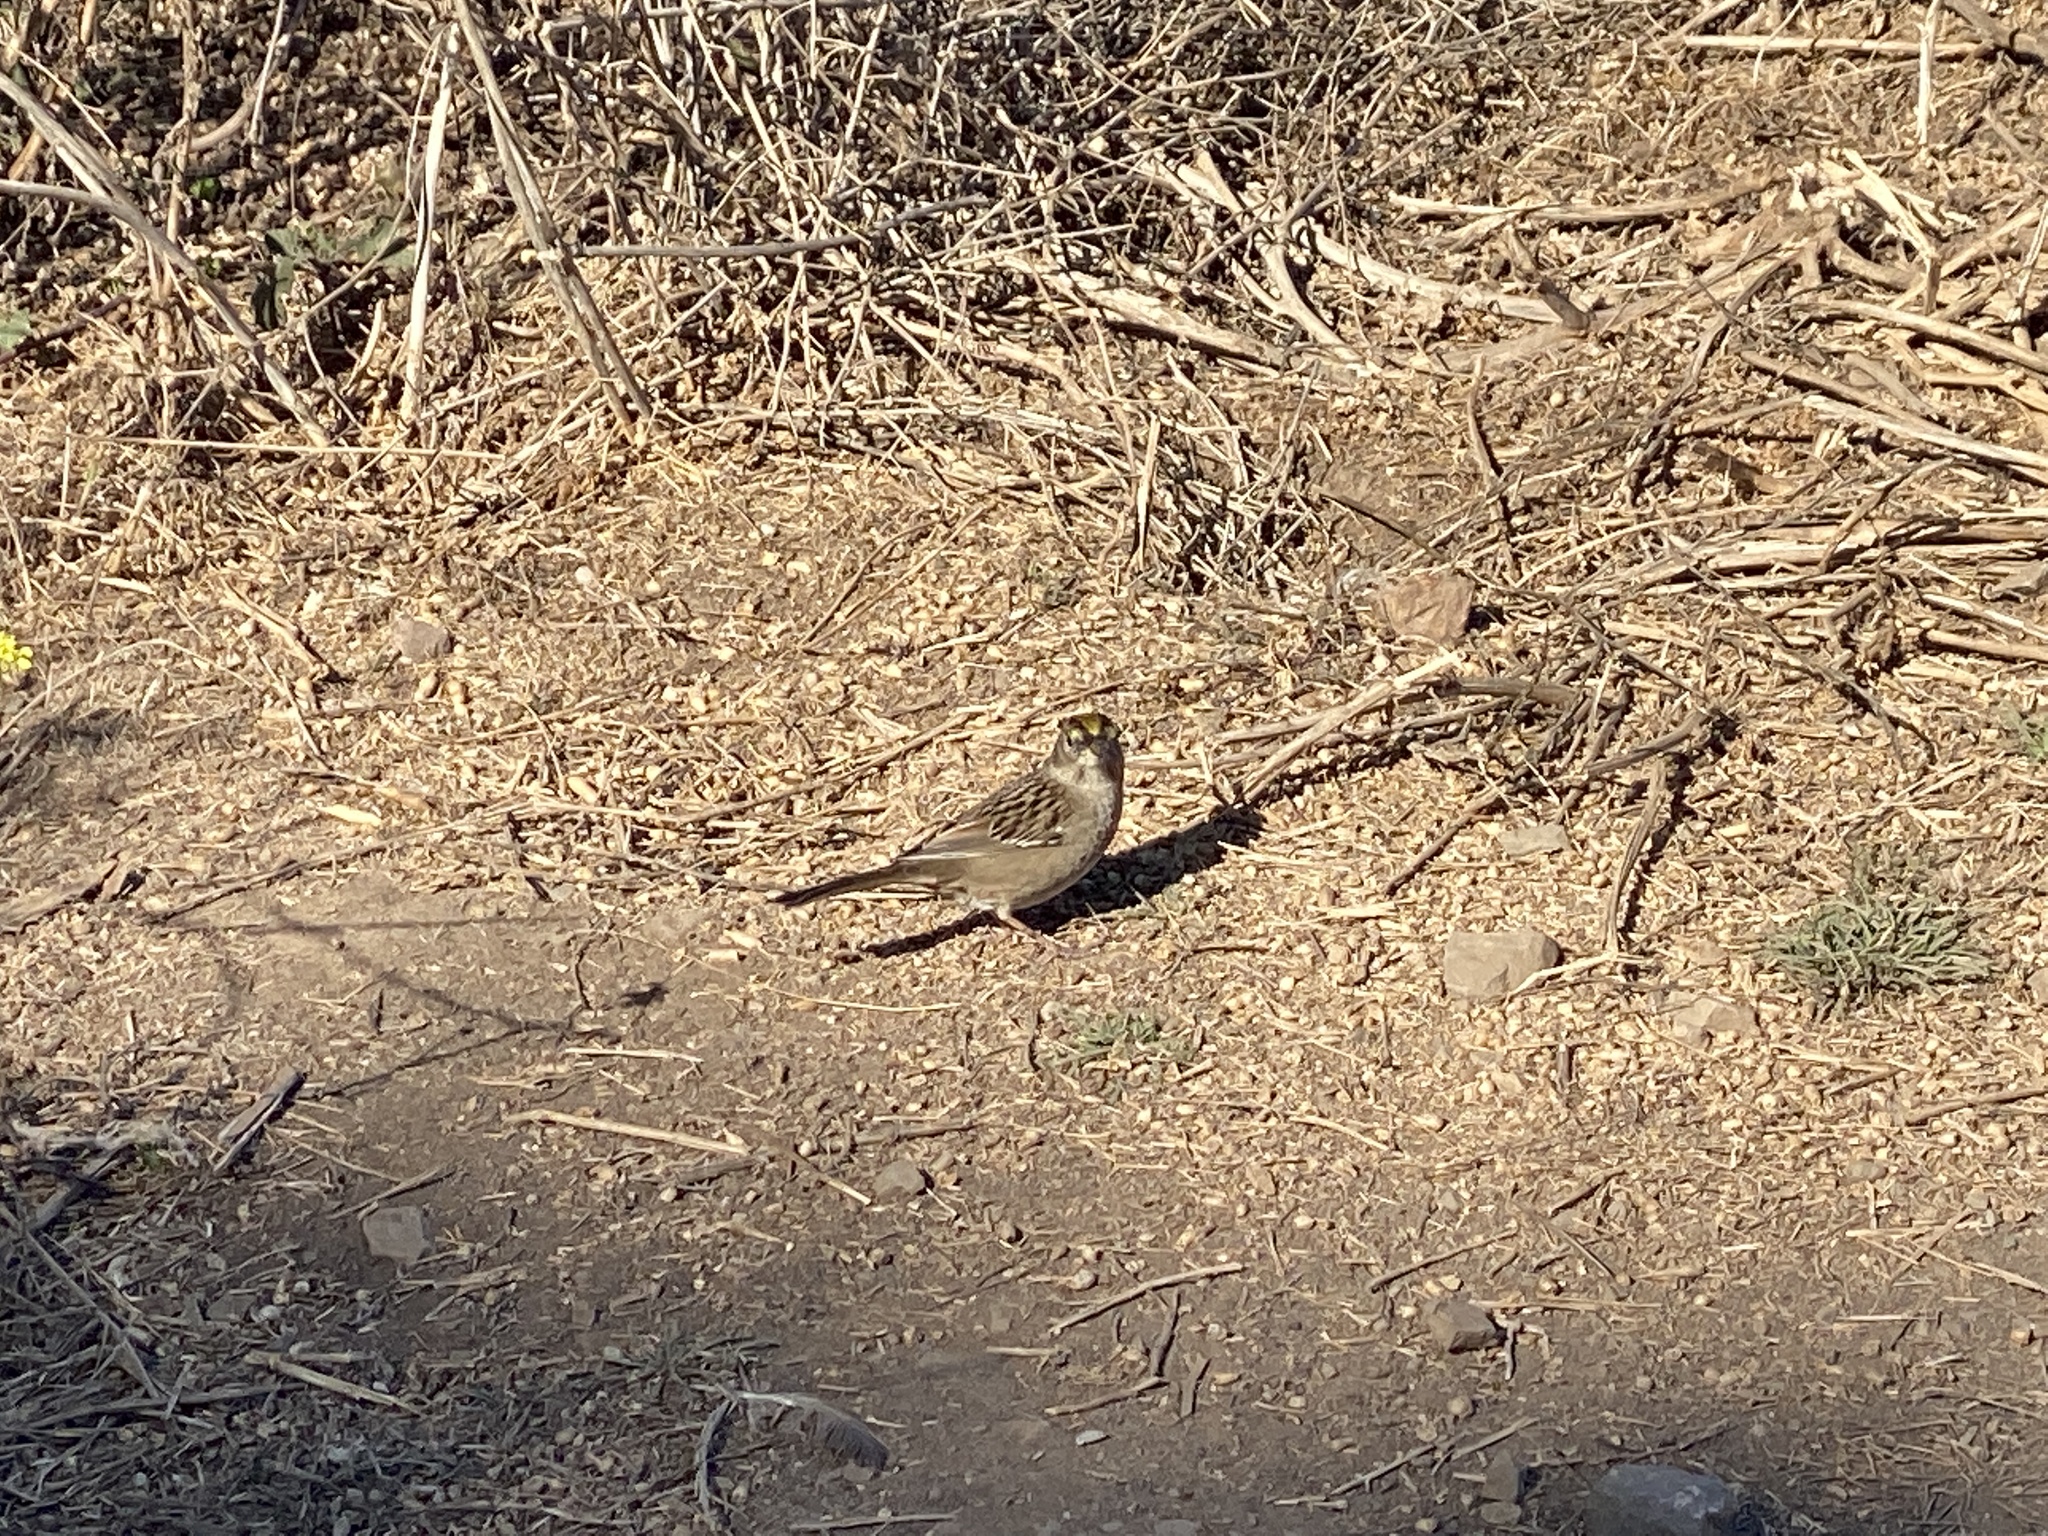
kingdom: Animalia
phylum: Chordata
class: Aves
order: Passeriformes
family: Passerellidae
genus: Zonotrichia
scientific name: Zonotrichia atricapilla
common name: Golden-crowned sparrow
